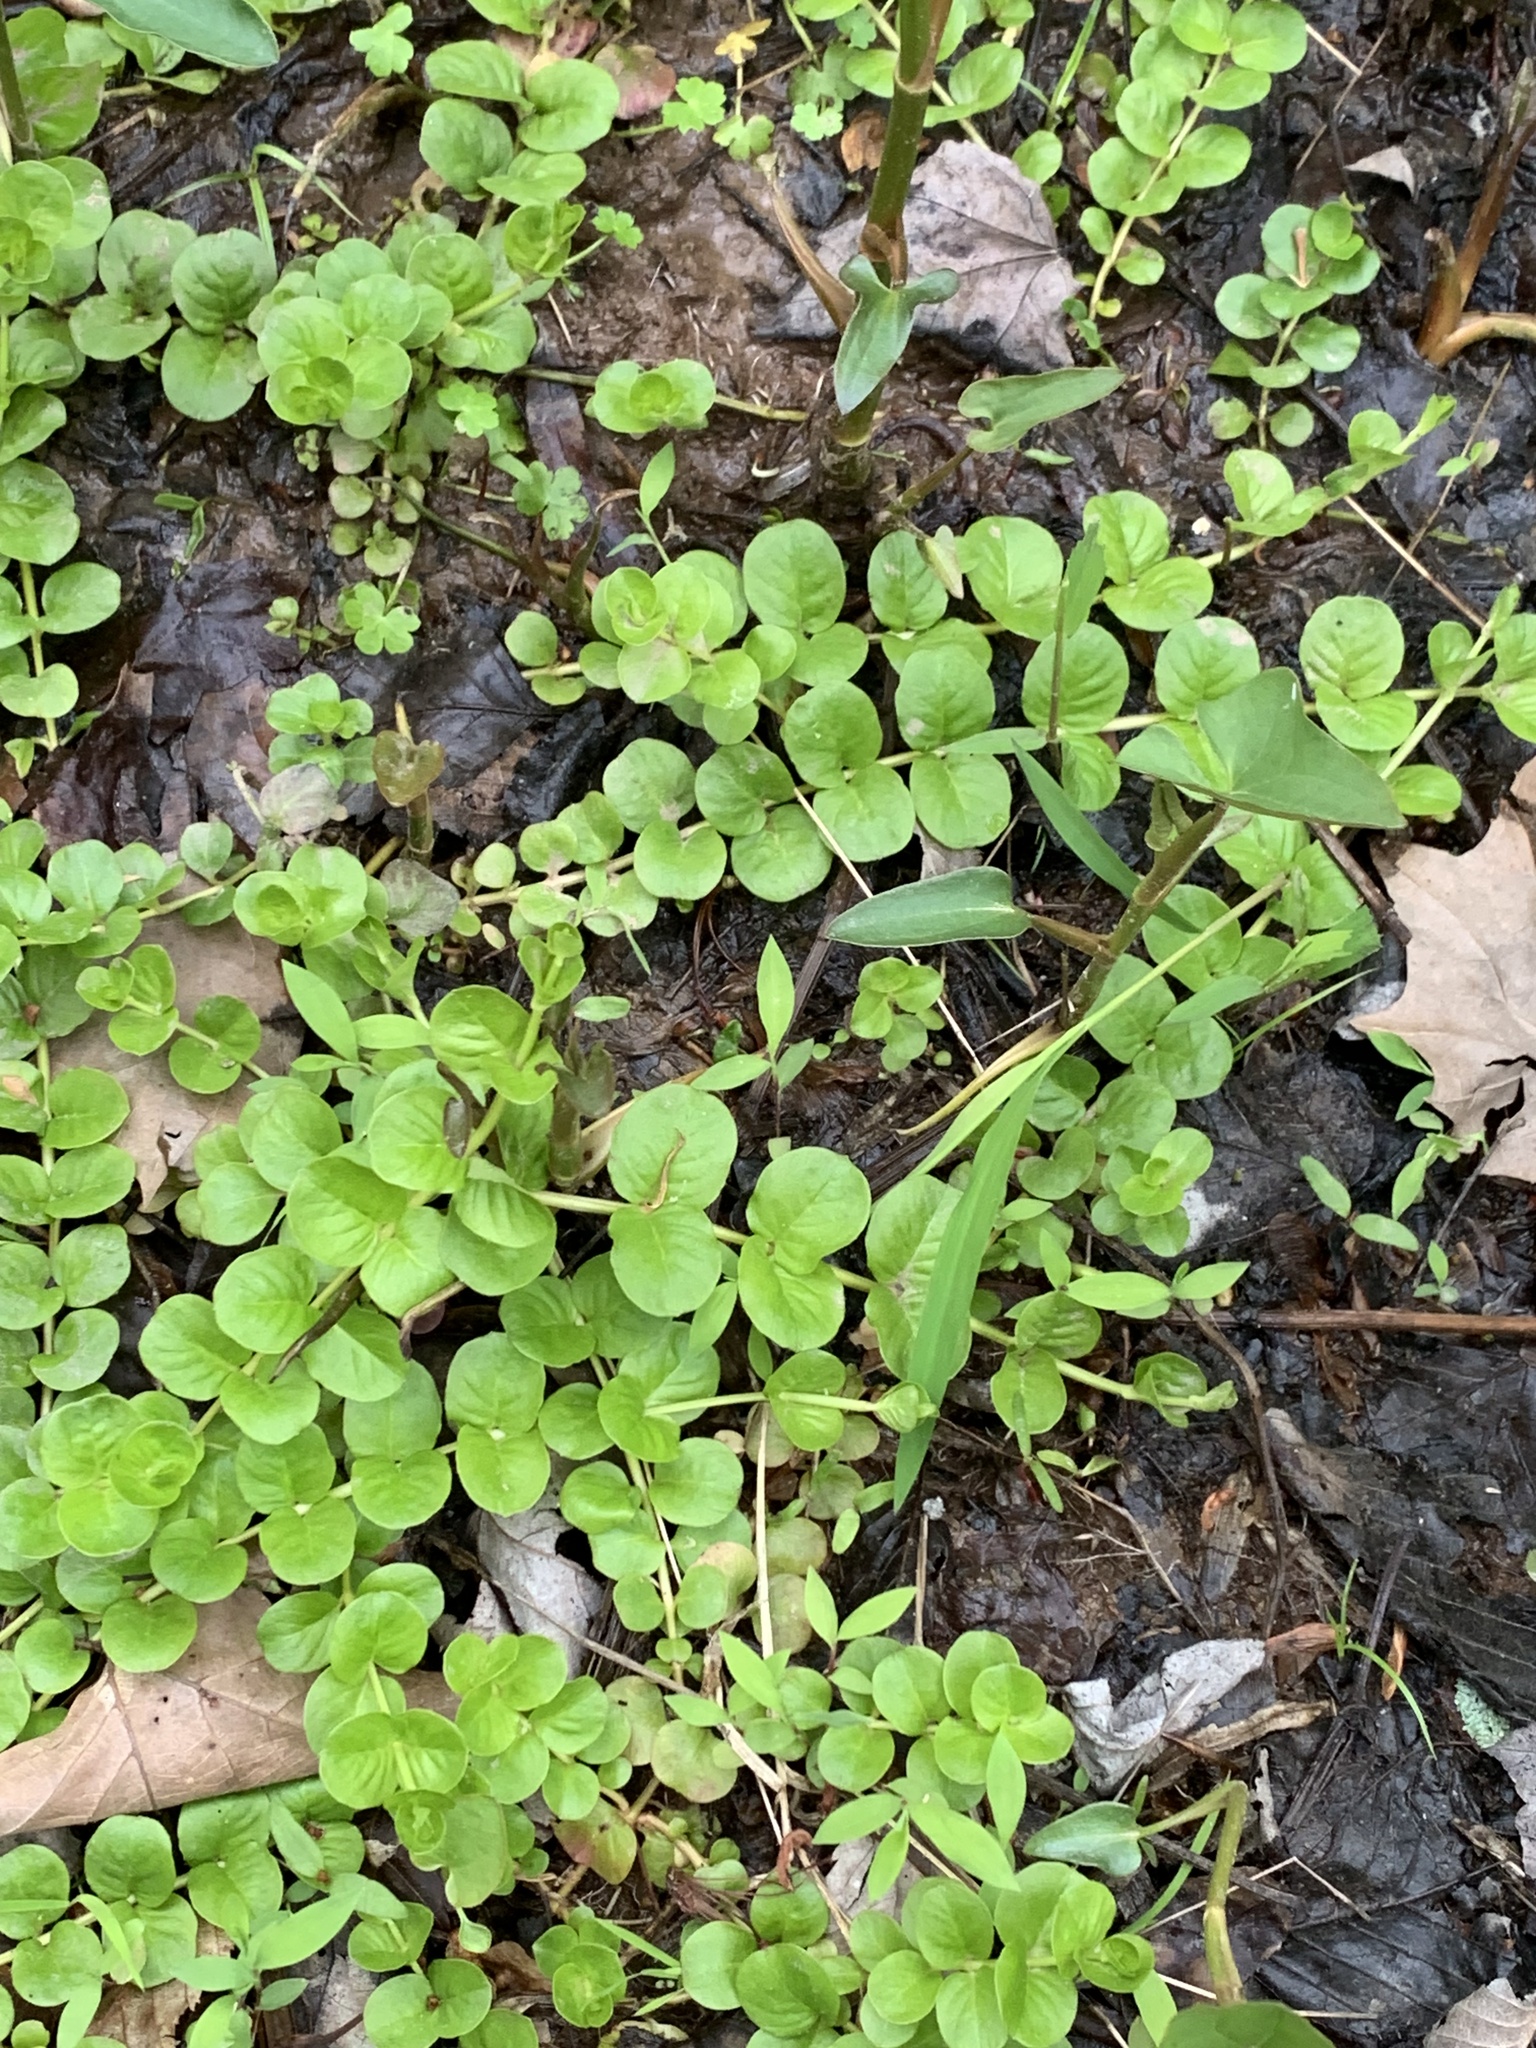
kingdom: Plantae
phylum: Tracheophyta
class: Magnoliopsida
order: Ericales
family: Primulaceae
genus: Lysimachia
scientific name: Lysimachia nummularia
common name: Moneywort
